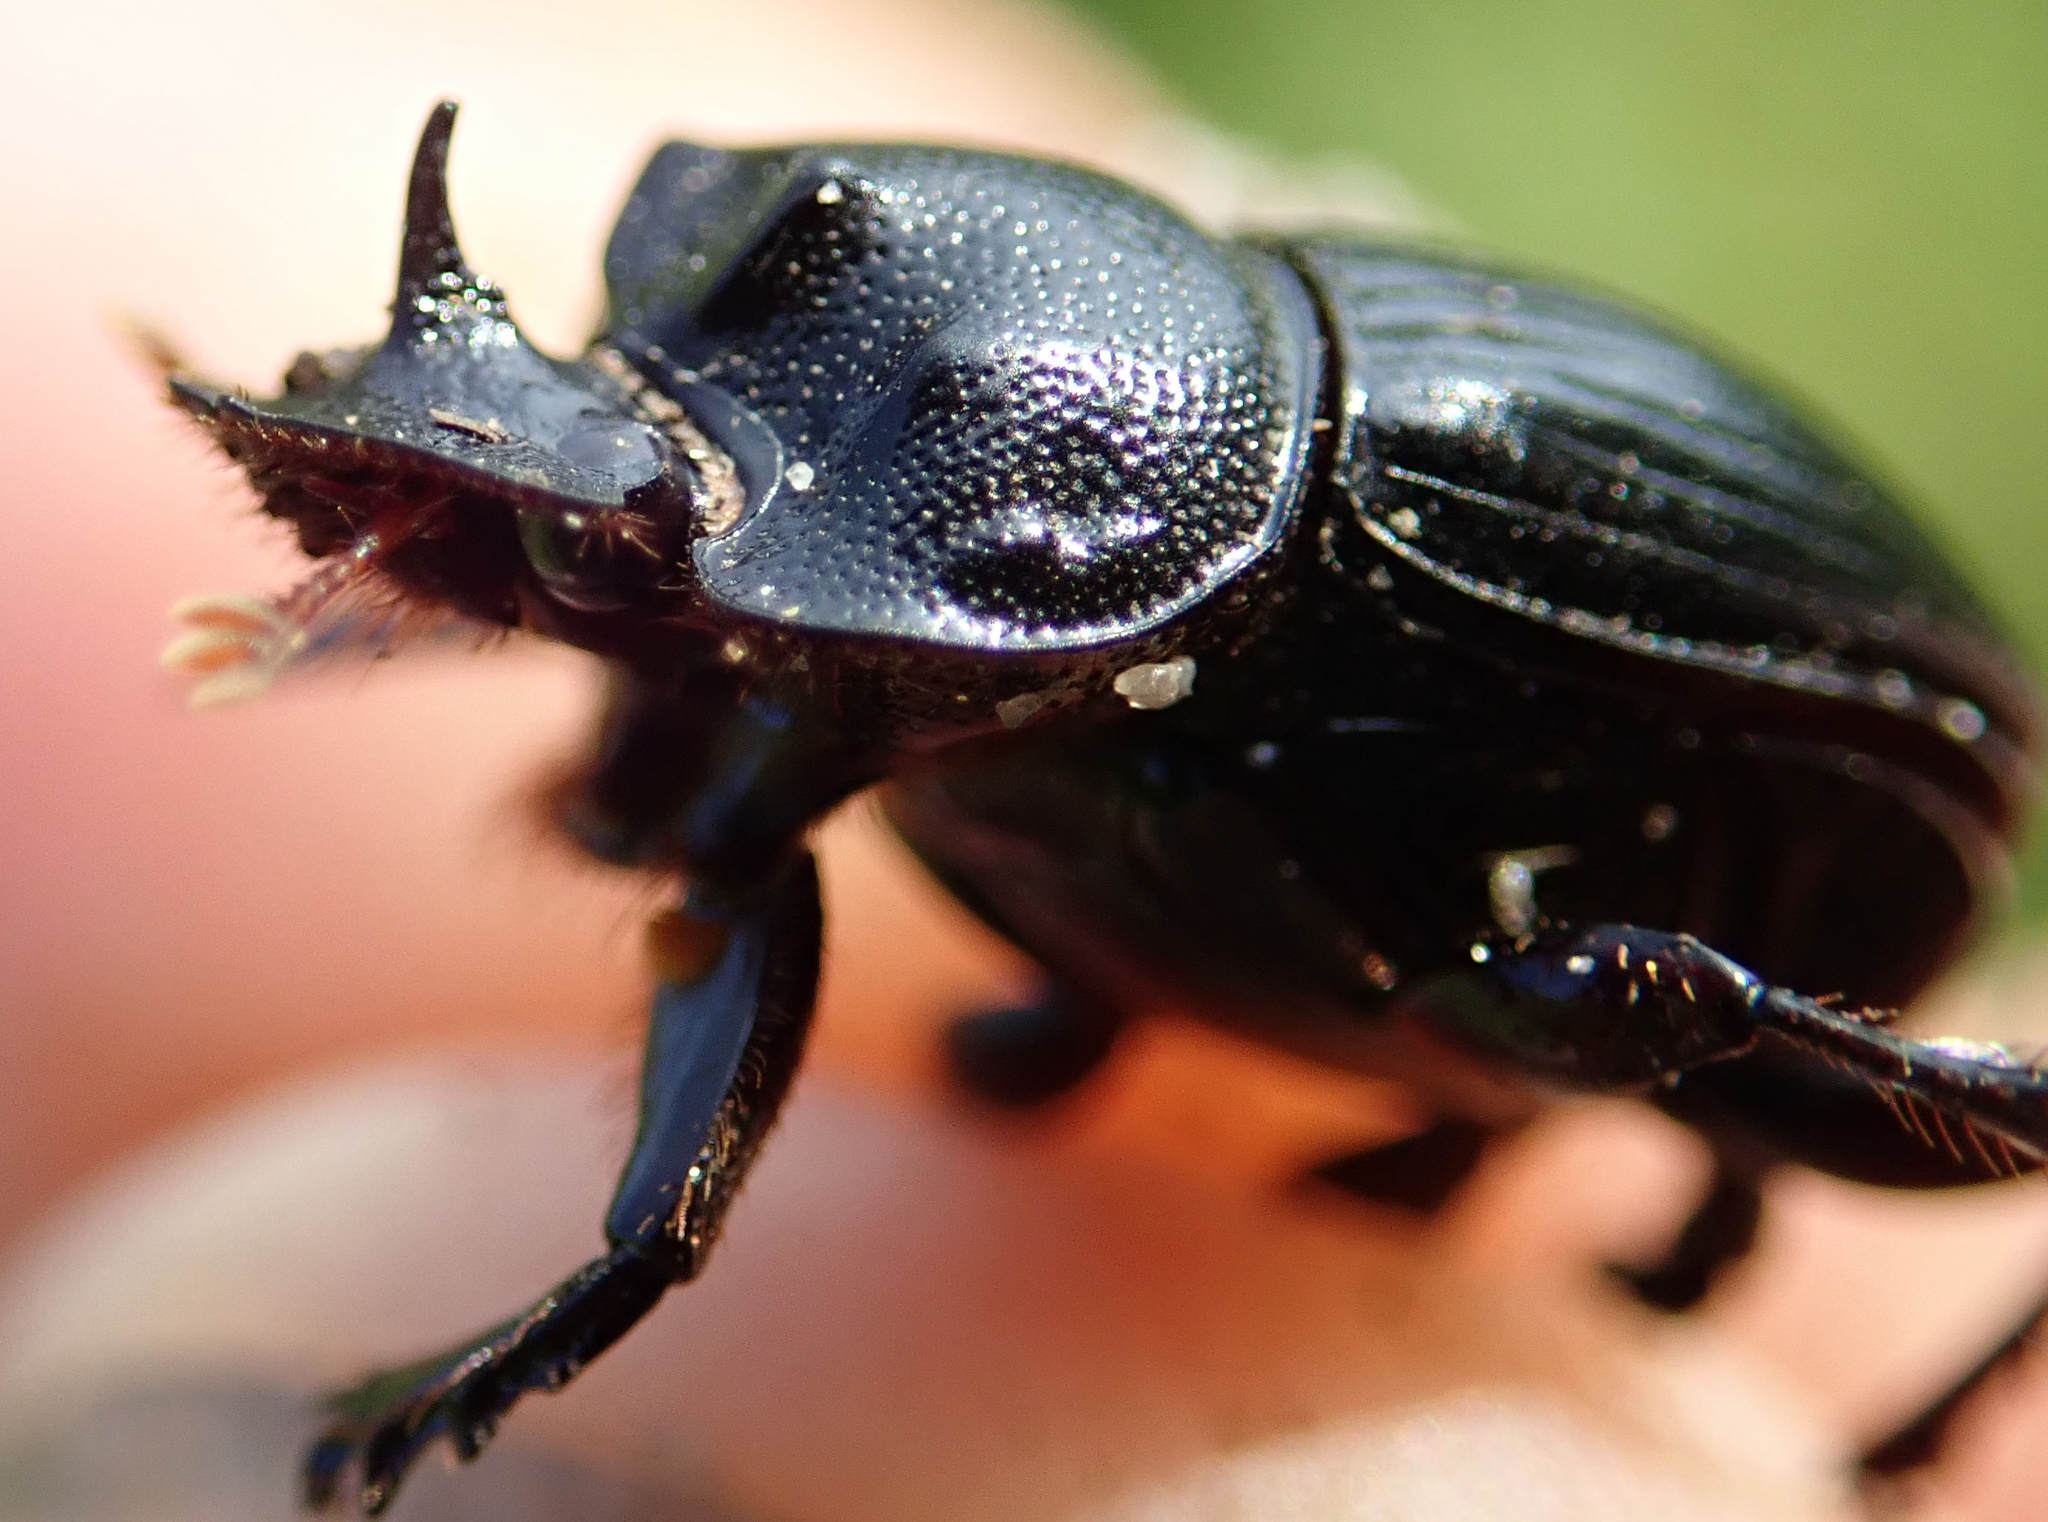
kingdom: Animalia
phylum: Arthropoda
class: Insecta
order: Coleoptera
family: Scarabaeidae
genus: Copris
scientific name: Copris amyntor
